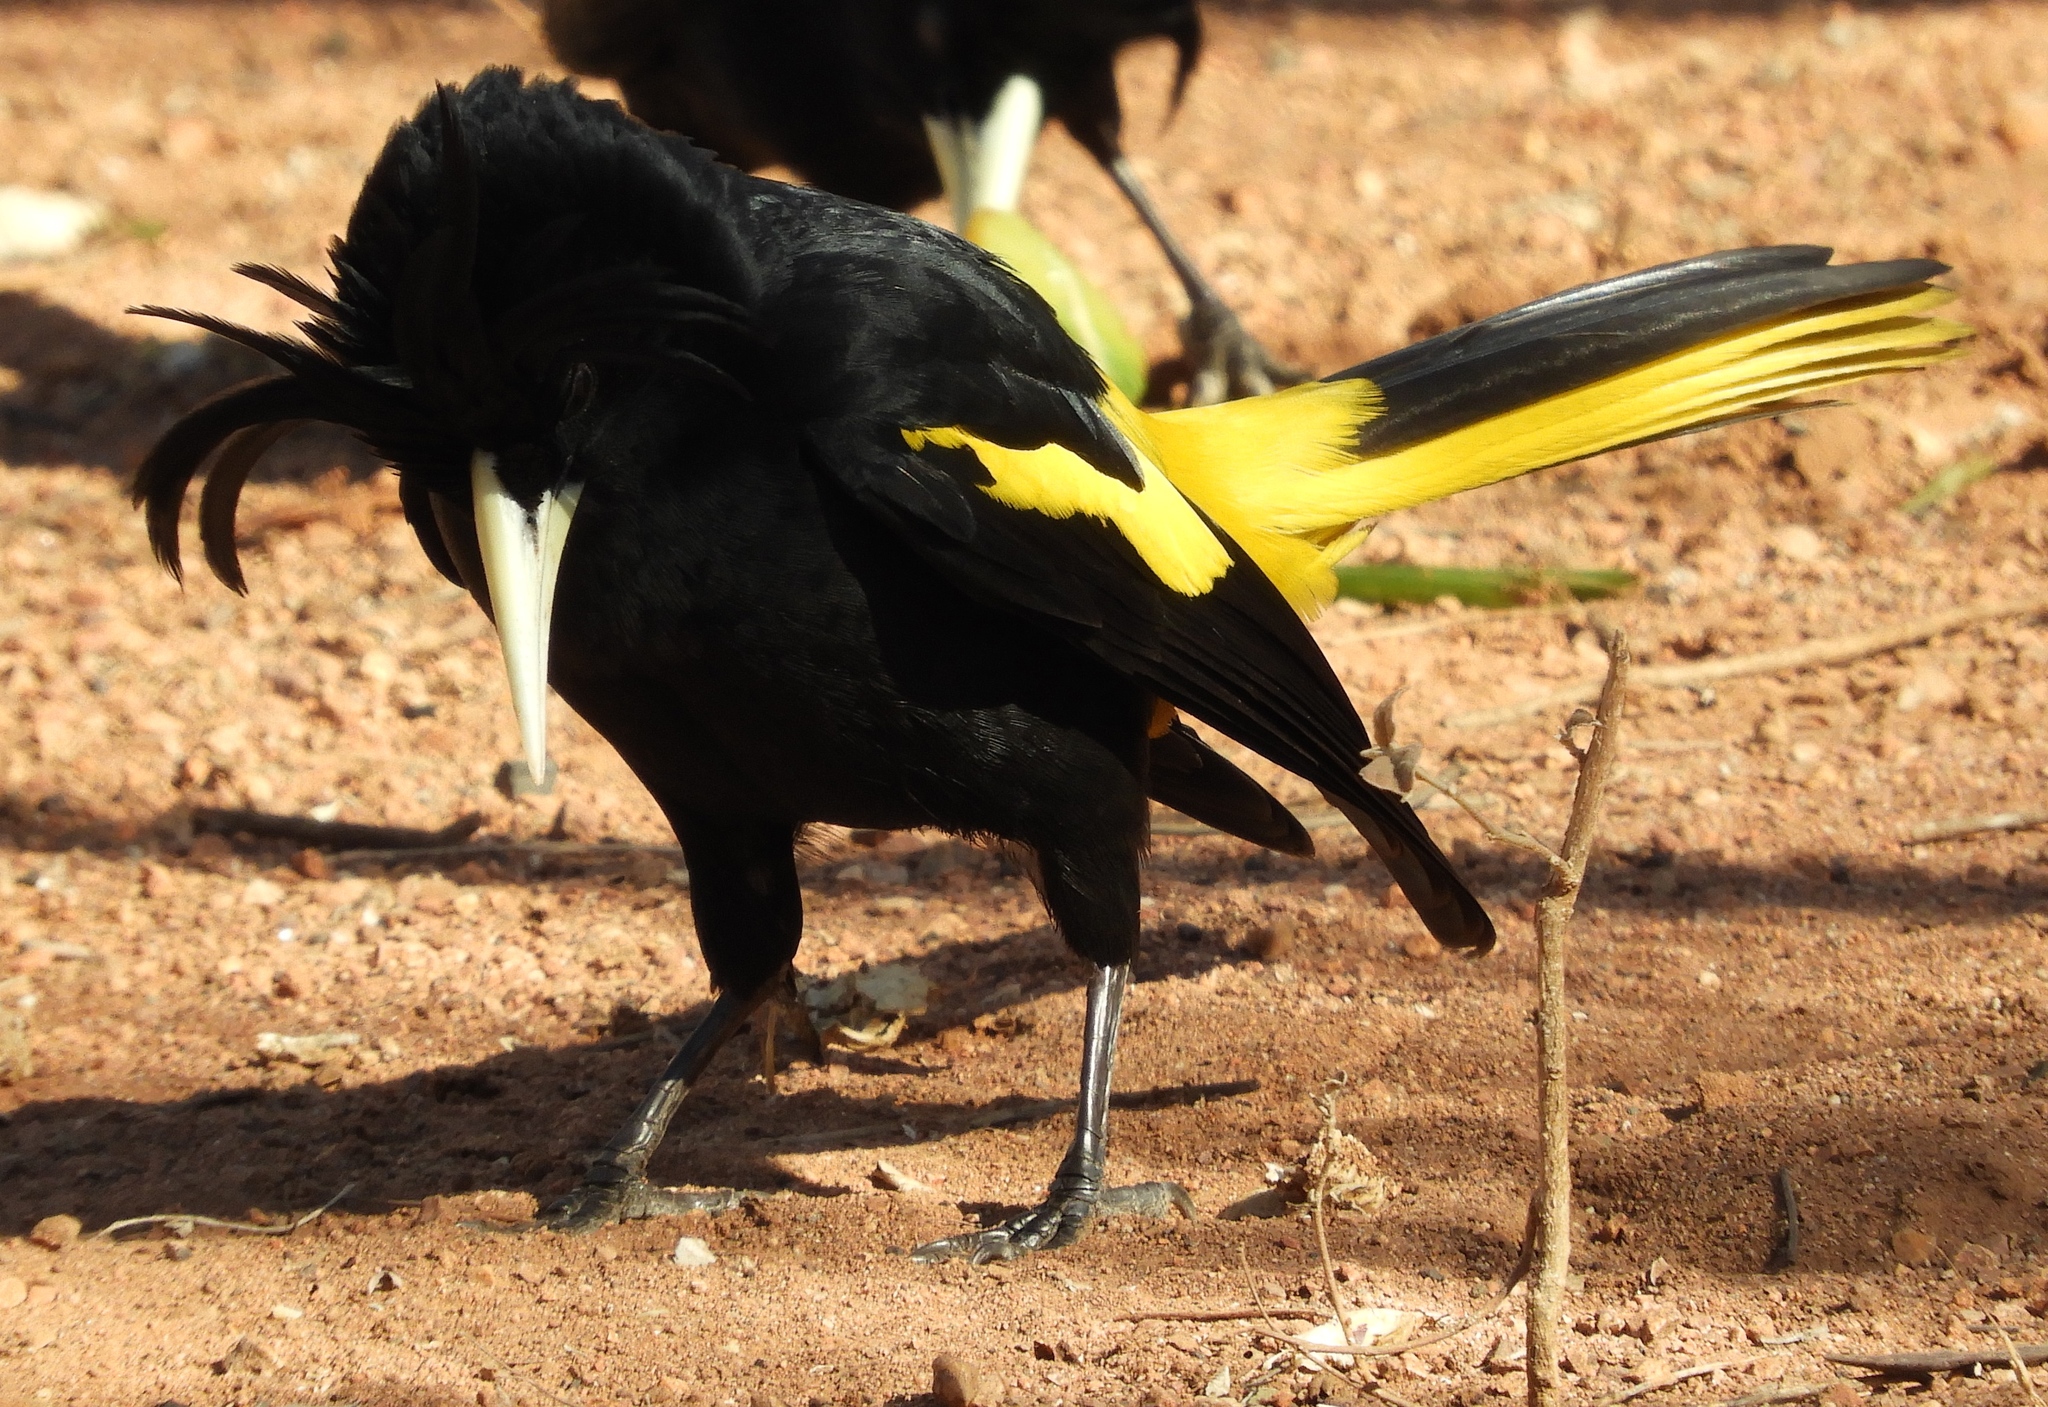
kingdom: Animalia
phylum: Chordata
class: Aves
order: Passeriformes
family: Icteridae
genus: Cacicus
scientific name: Cacicus melanicterus
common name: Yellow-winged cacique
